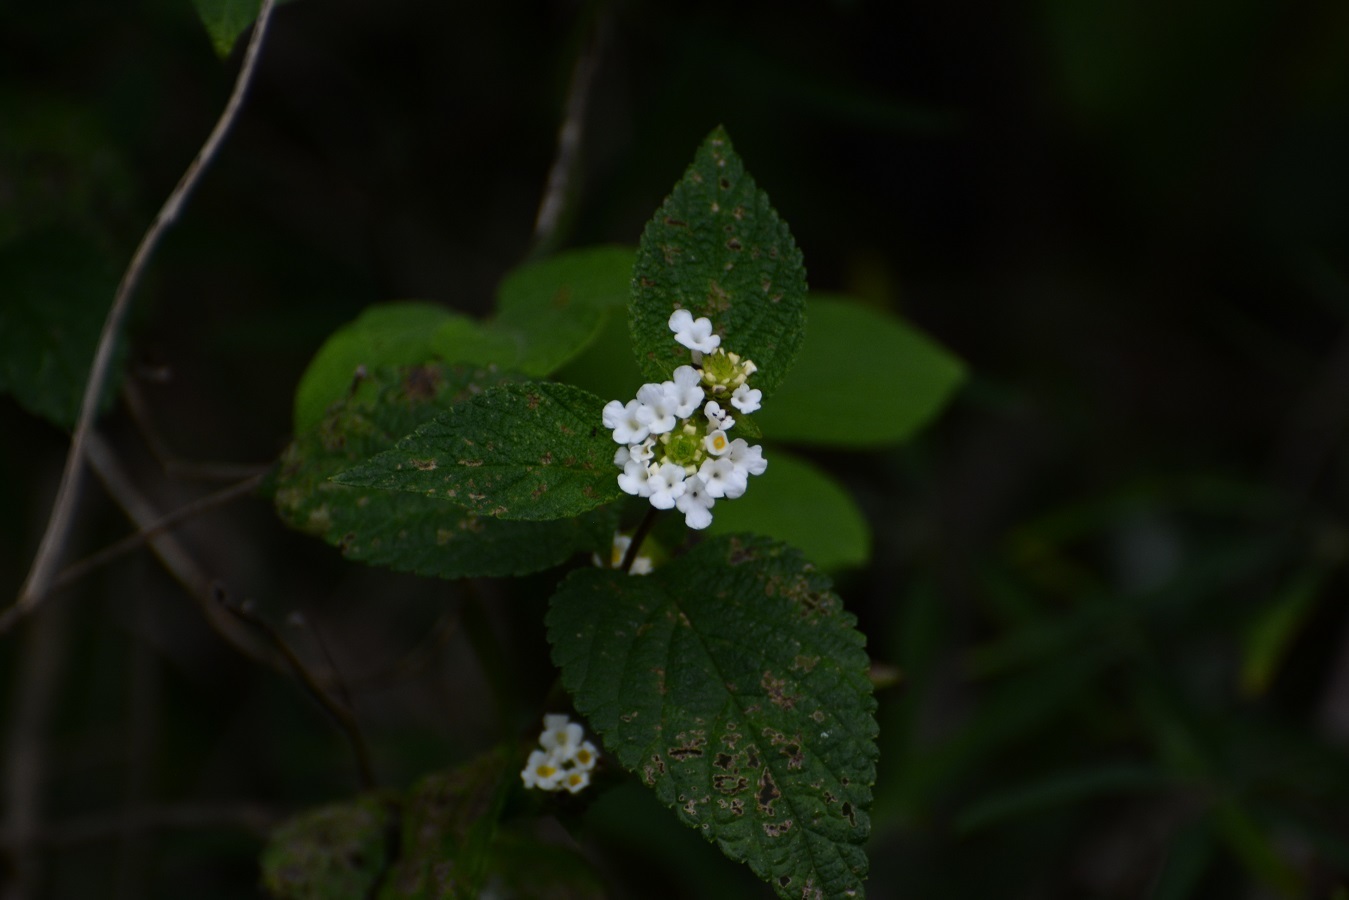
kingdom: Plantae
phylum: Tracheophyta
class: Magnoliopsida
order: Lamiales
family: Verbenaceae
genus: Lantana
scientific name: Lantana velutina
